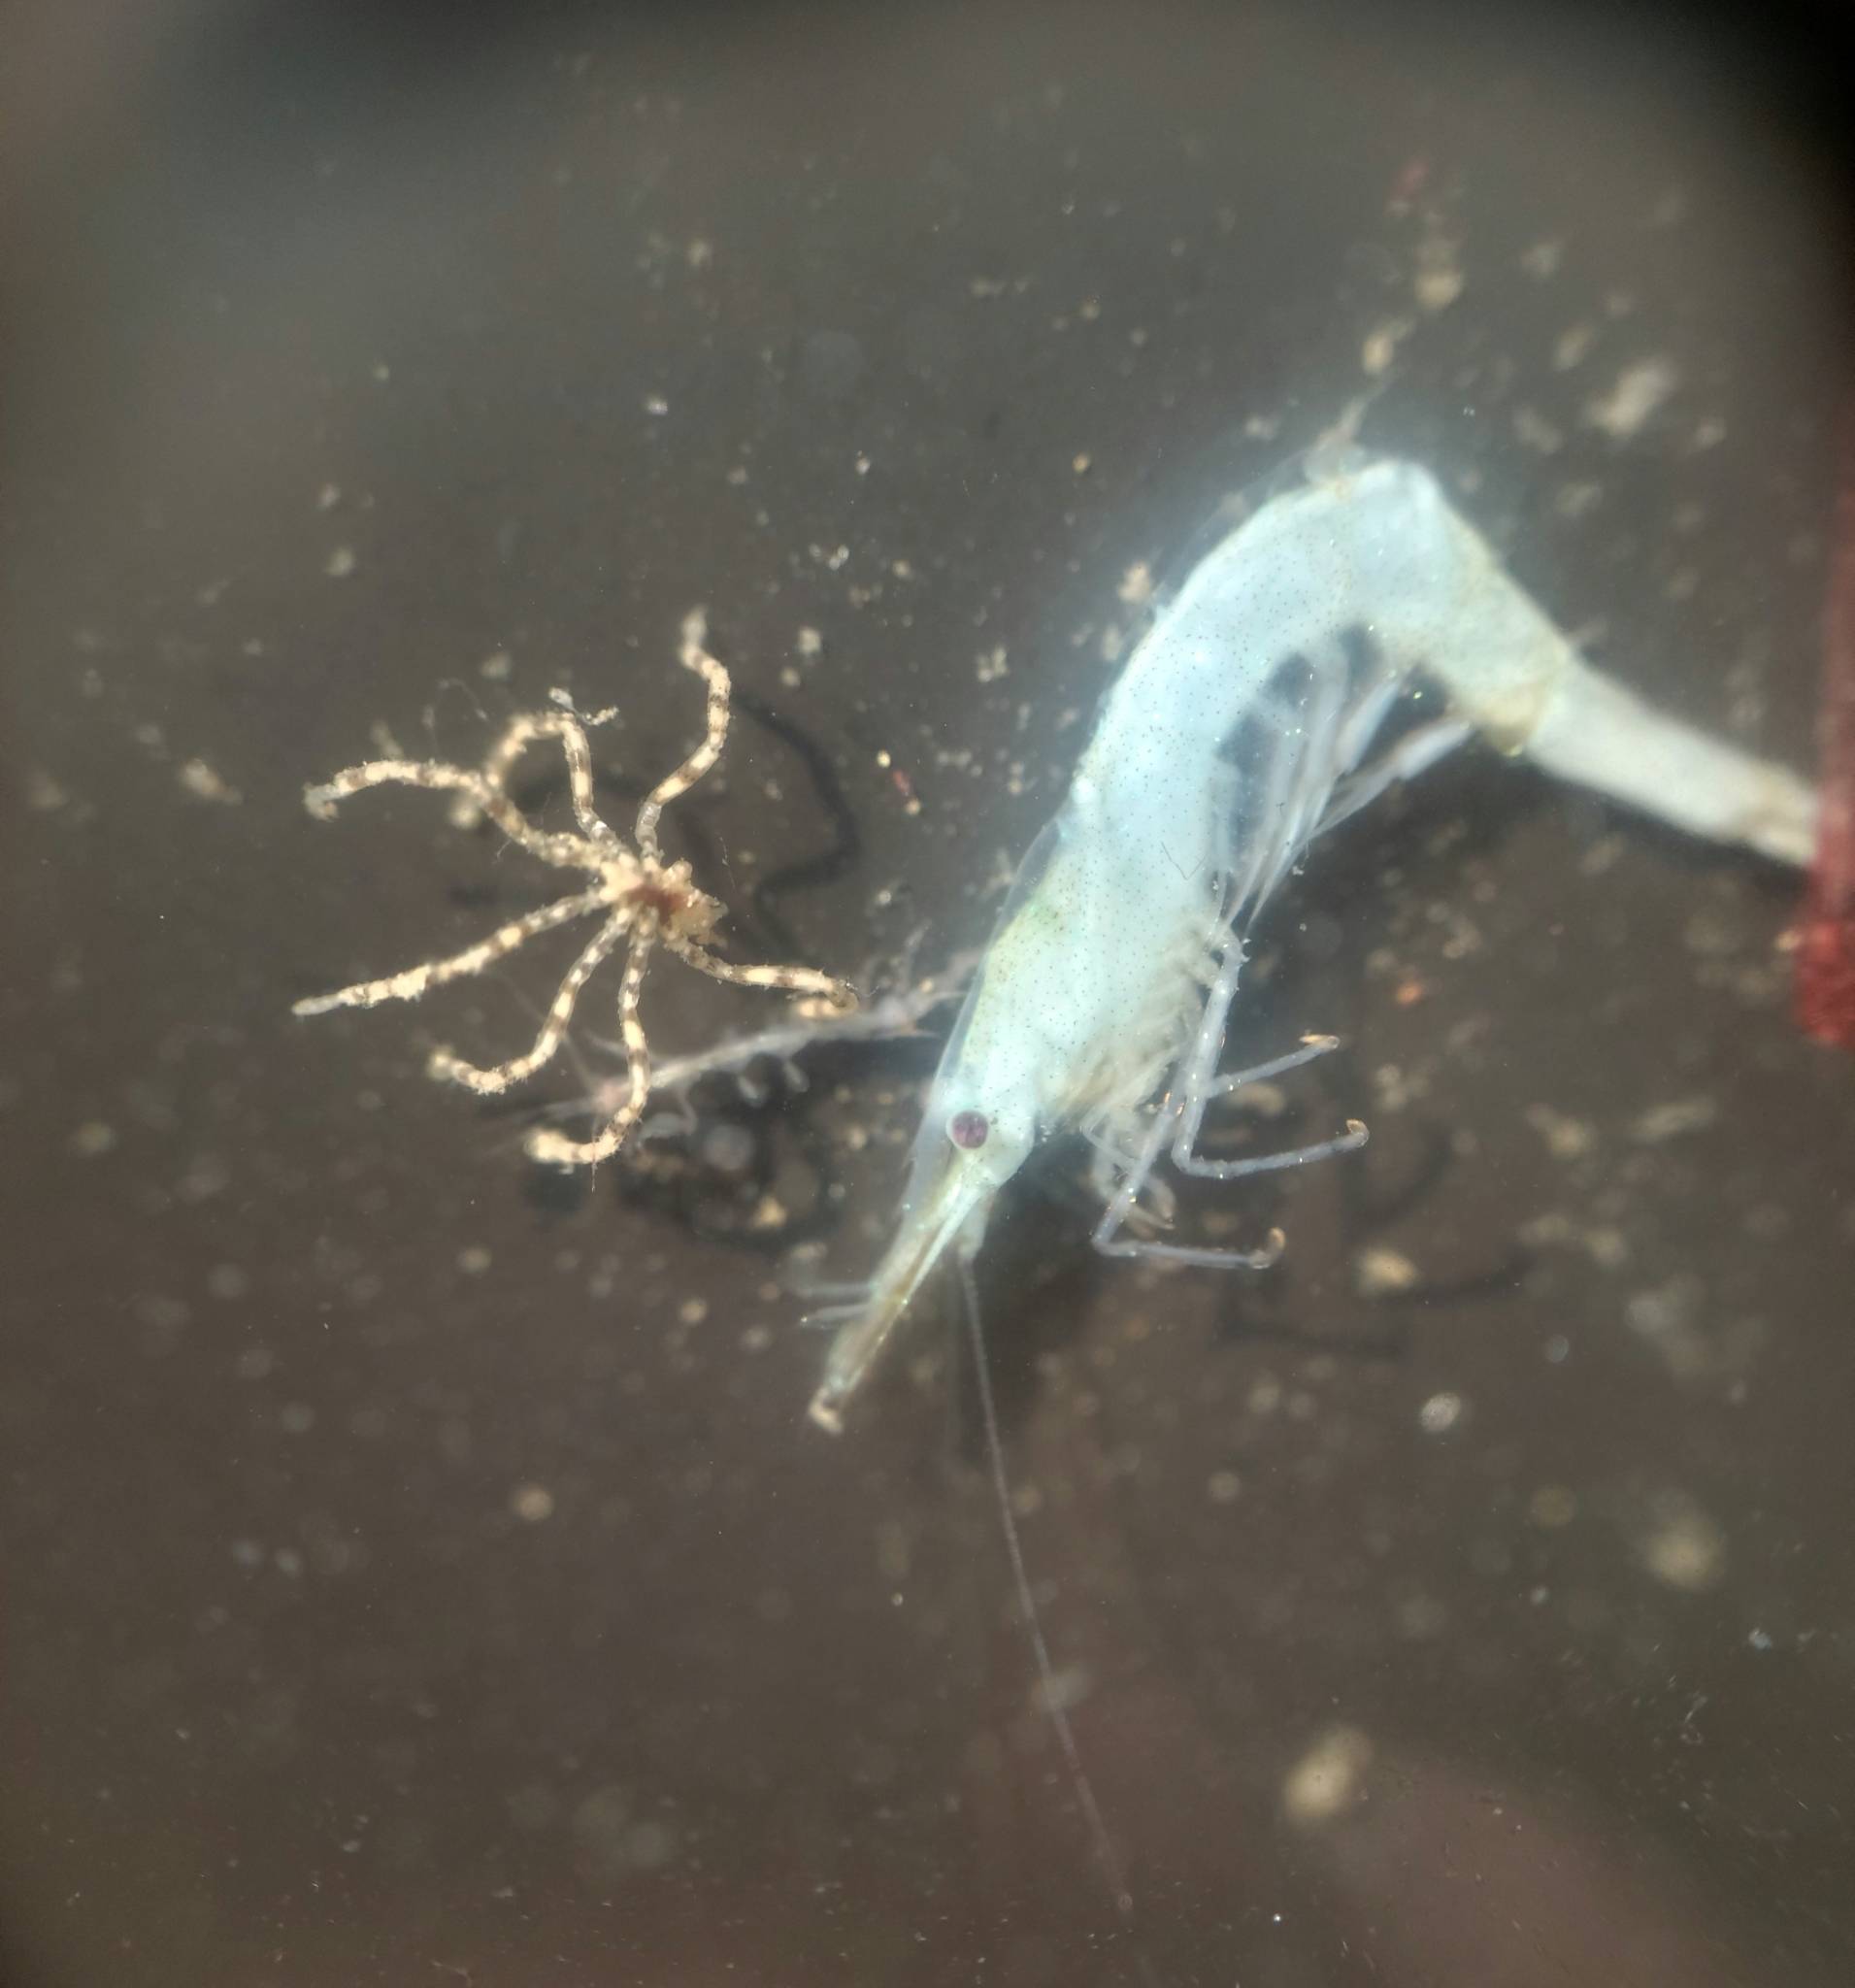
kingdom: Animalia
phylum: Arthropoda
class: Pycnogonida
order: Pantopoda
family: Ammotheidae
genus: Ammothea
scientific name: Ammothea hilgendorfi
